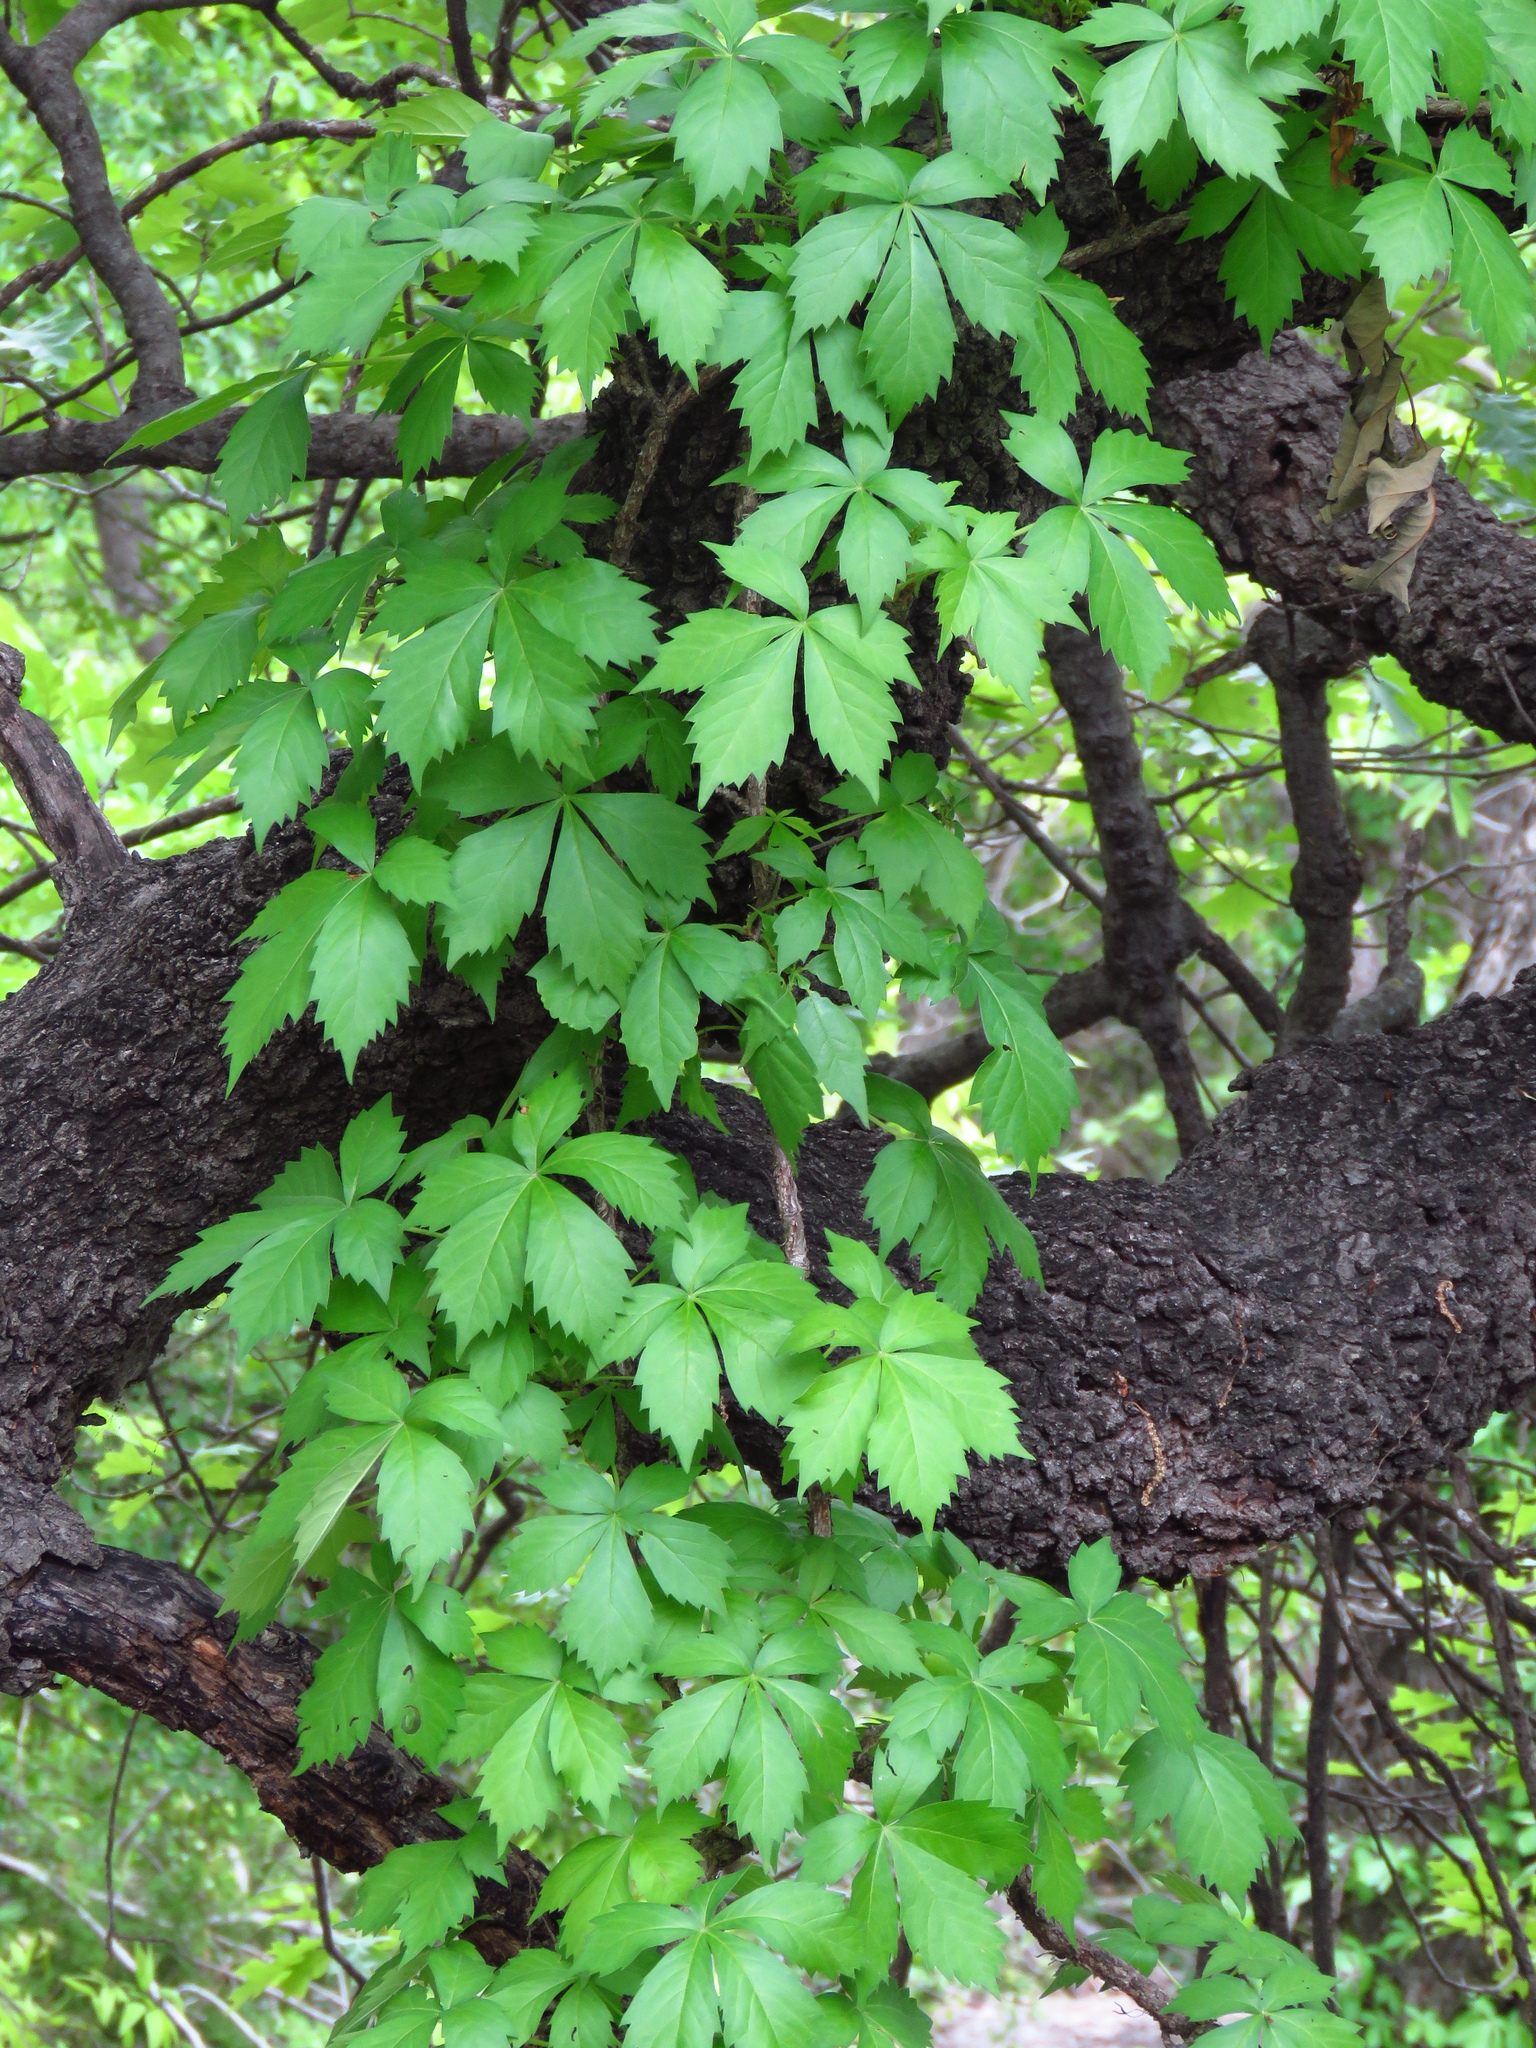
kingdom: Plantae
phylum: Tracheophyta
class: Magnoliopsida
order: Vitales
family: Vitaceae
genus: Parthenocissus
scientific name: Parthenocissus quinquefolia
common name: Virginia-creeper
